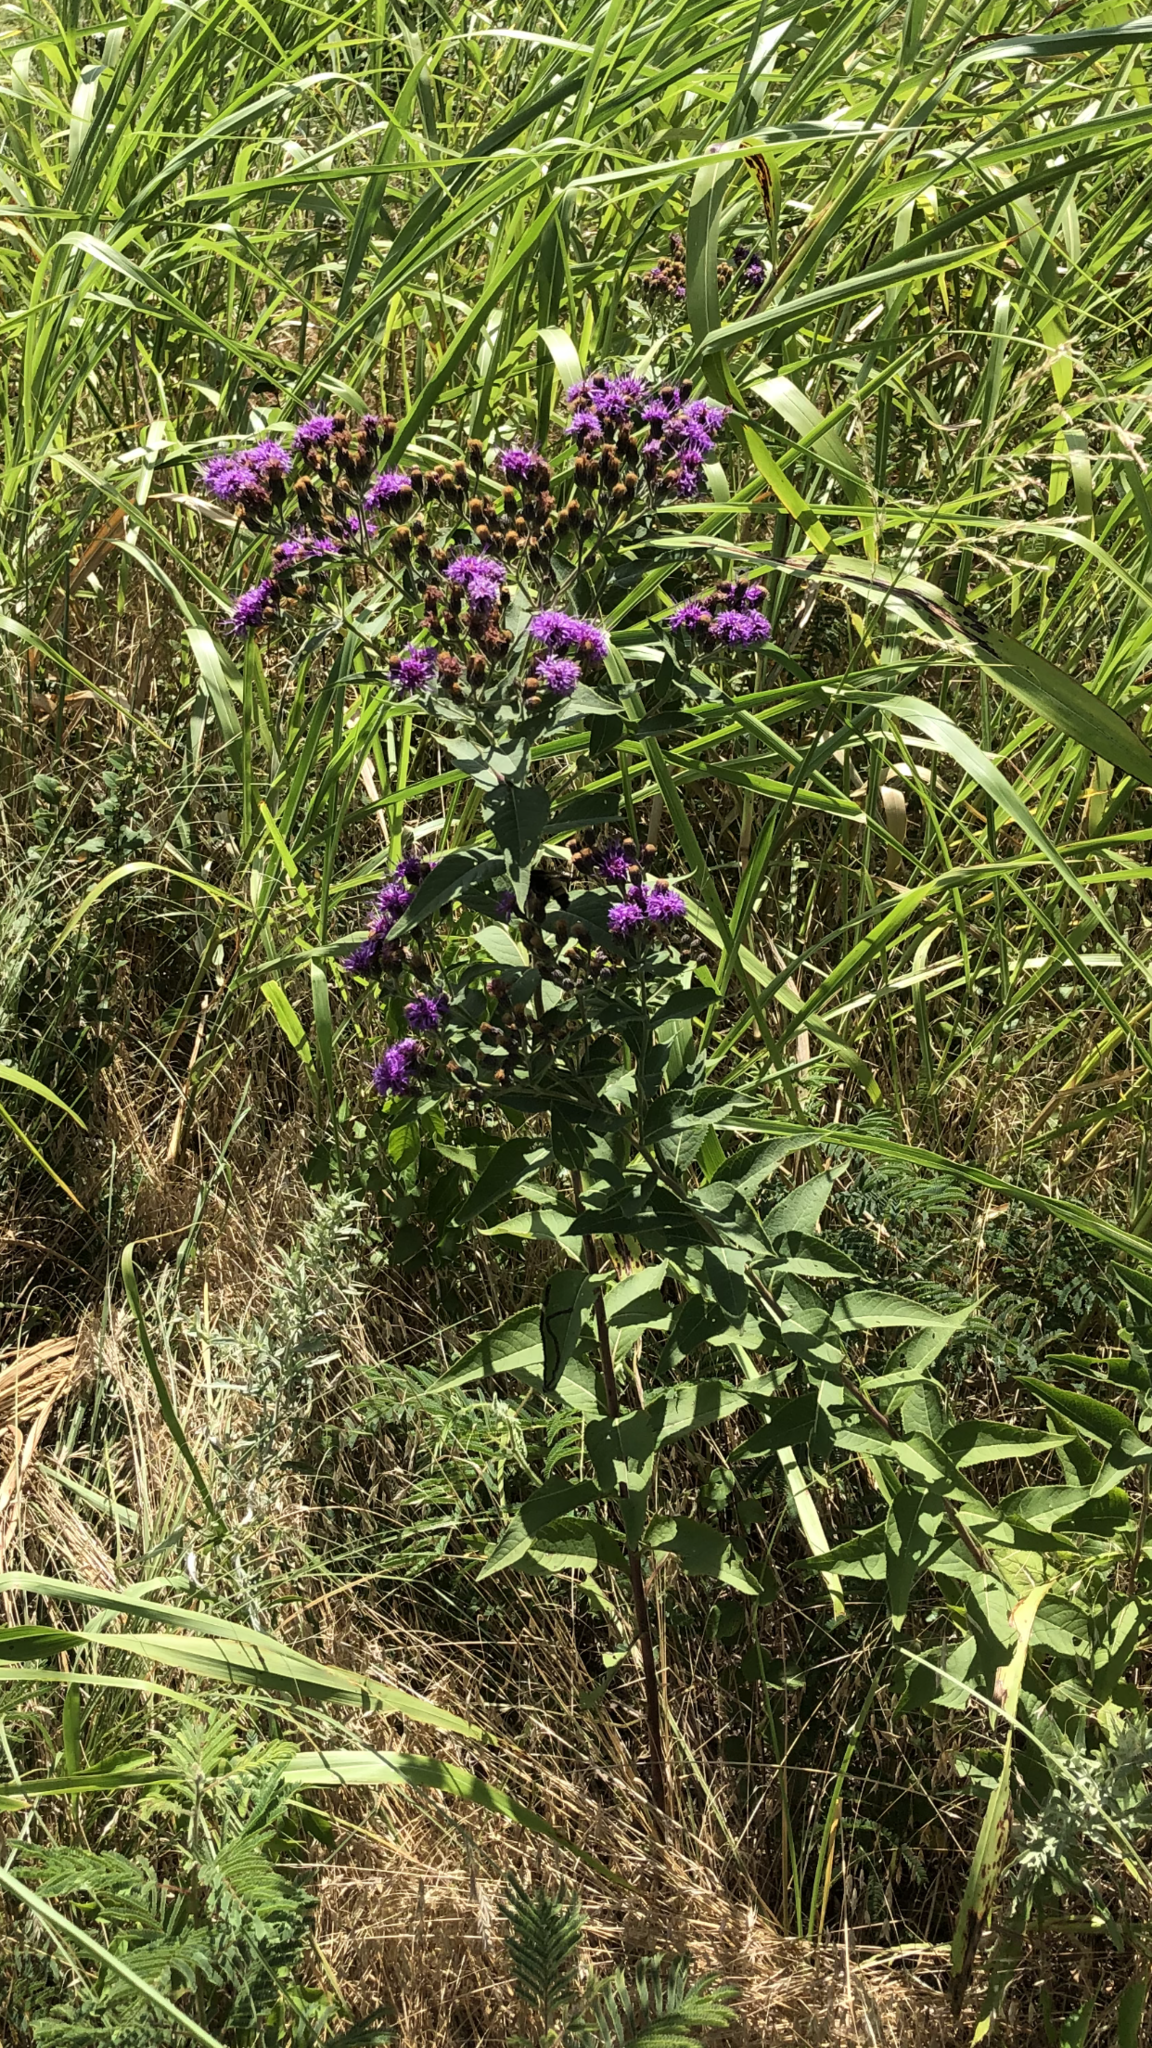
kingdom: Plantae
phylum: Tracheophyta
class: Magnoliopsida
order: Asterales
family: Asteraceae
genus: Vernonia
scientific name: Vernonia baldwinii
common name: Western ironweed
